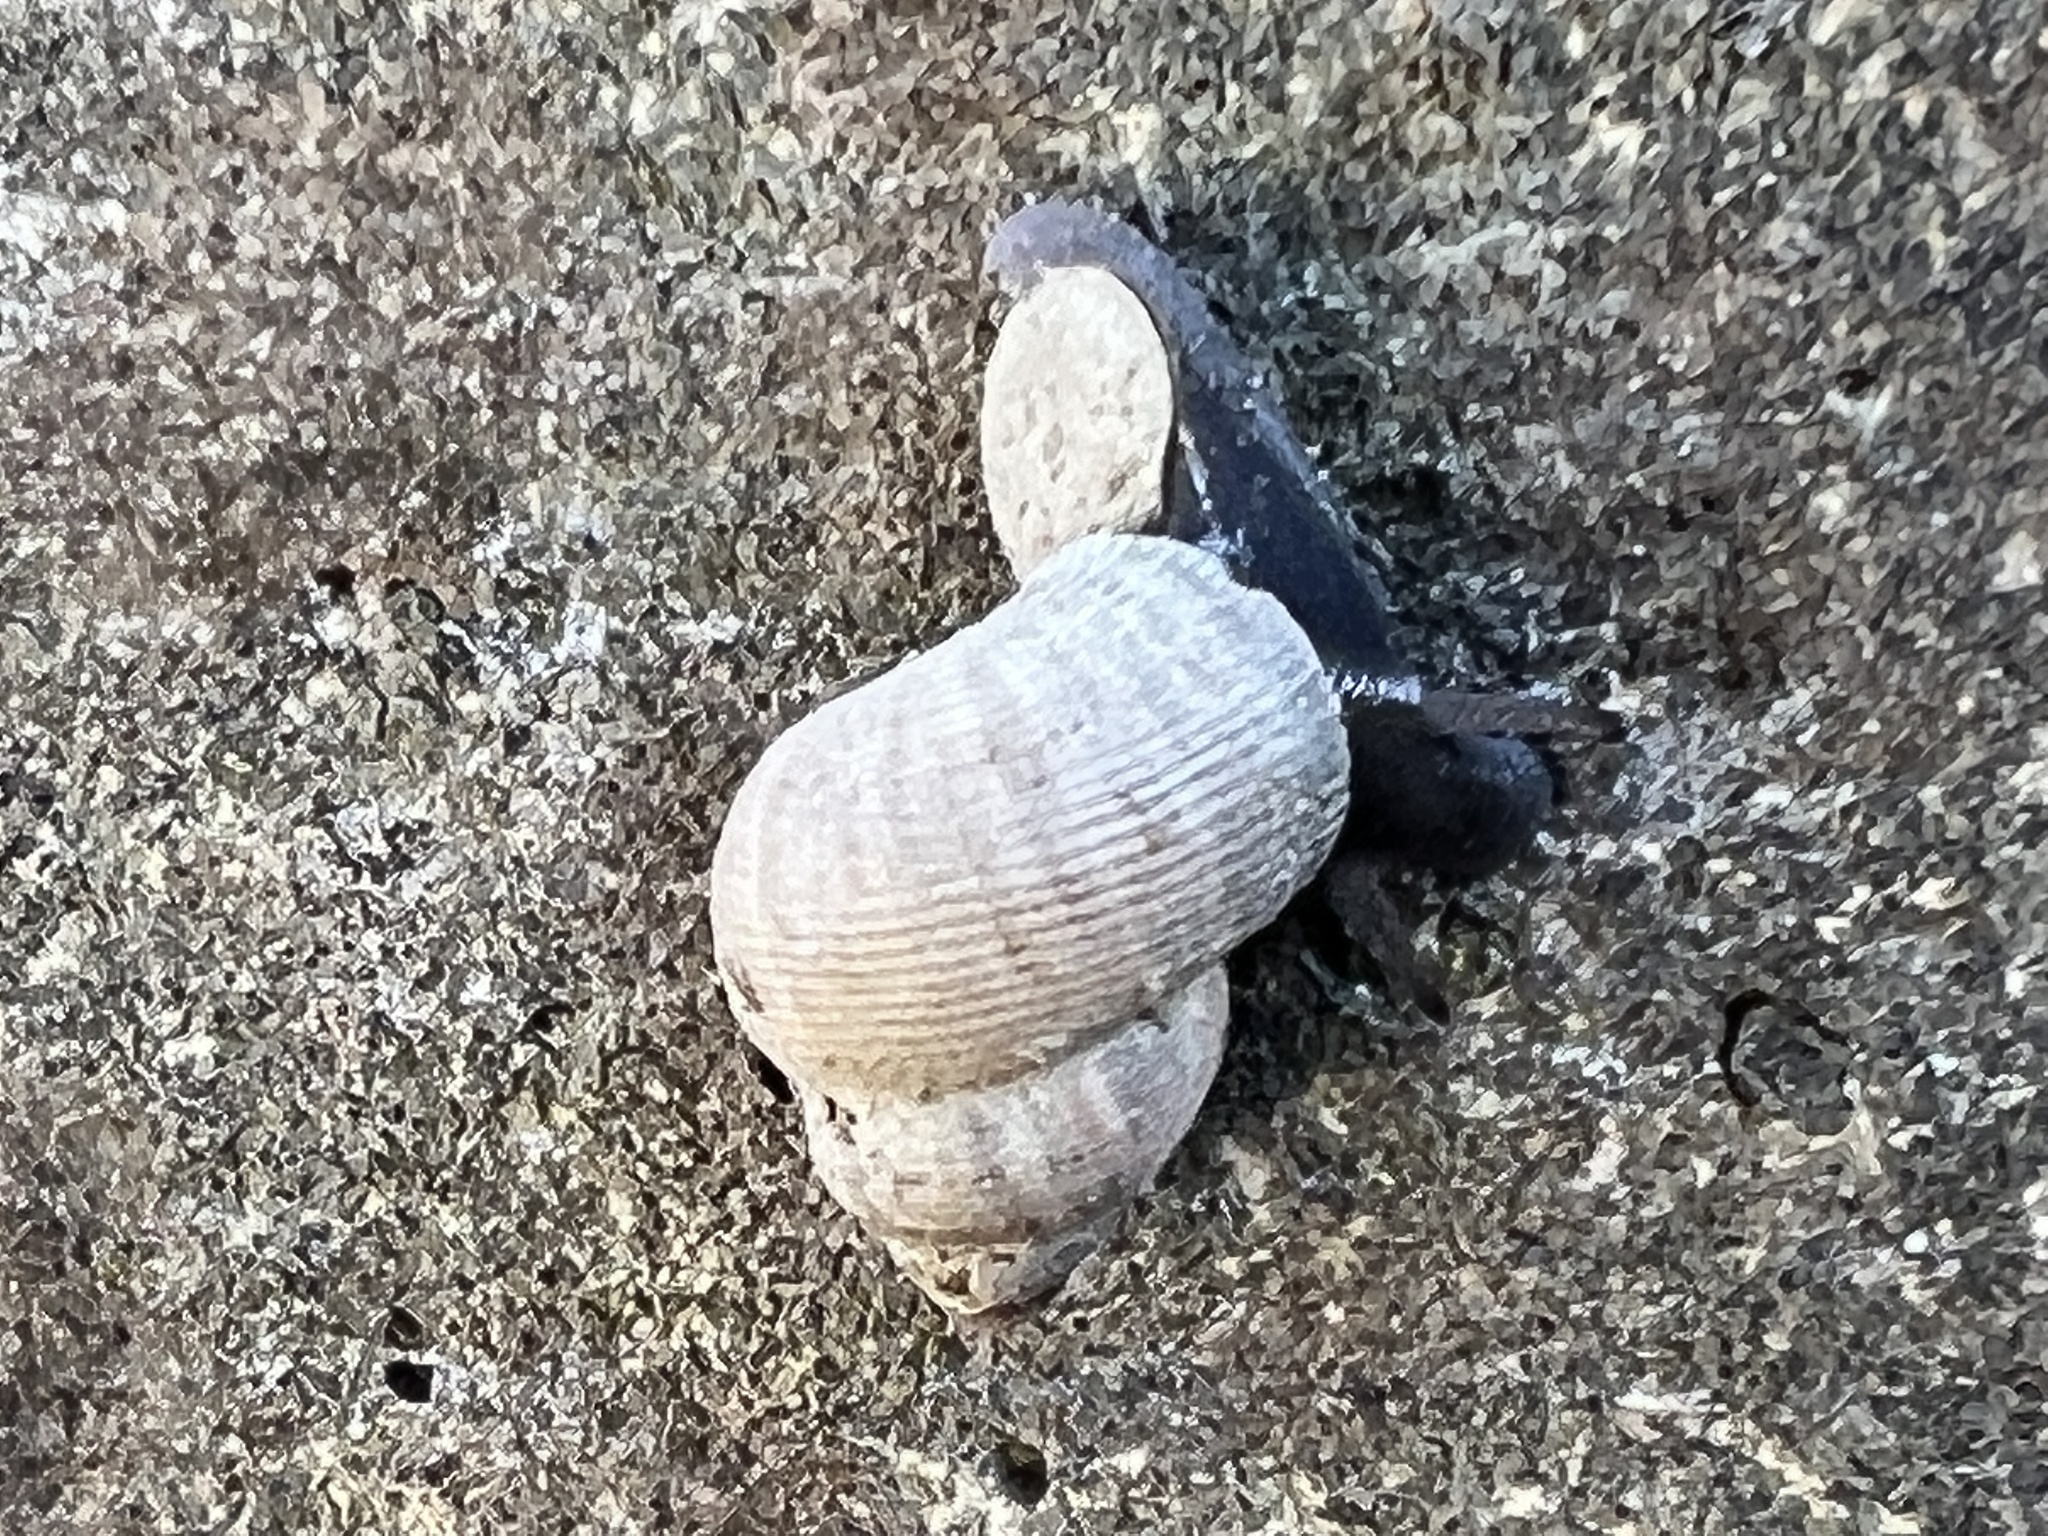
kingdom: Animalia
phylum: Mollusca
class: Gastropoda
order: Littorinimorpha
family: Pomatiidae
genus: Pomatias
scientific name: Pomatias elegans
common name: Red-mouthed snail
